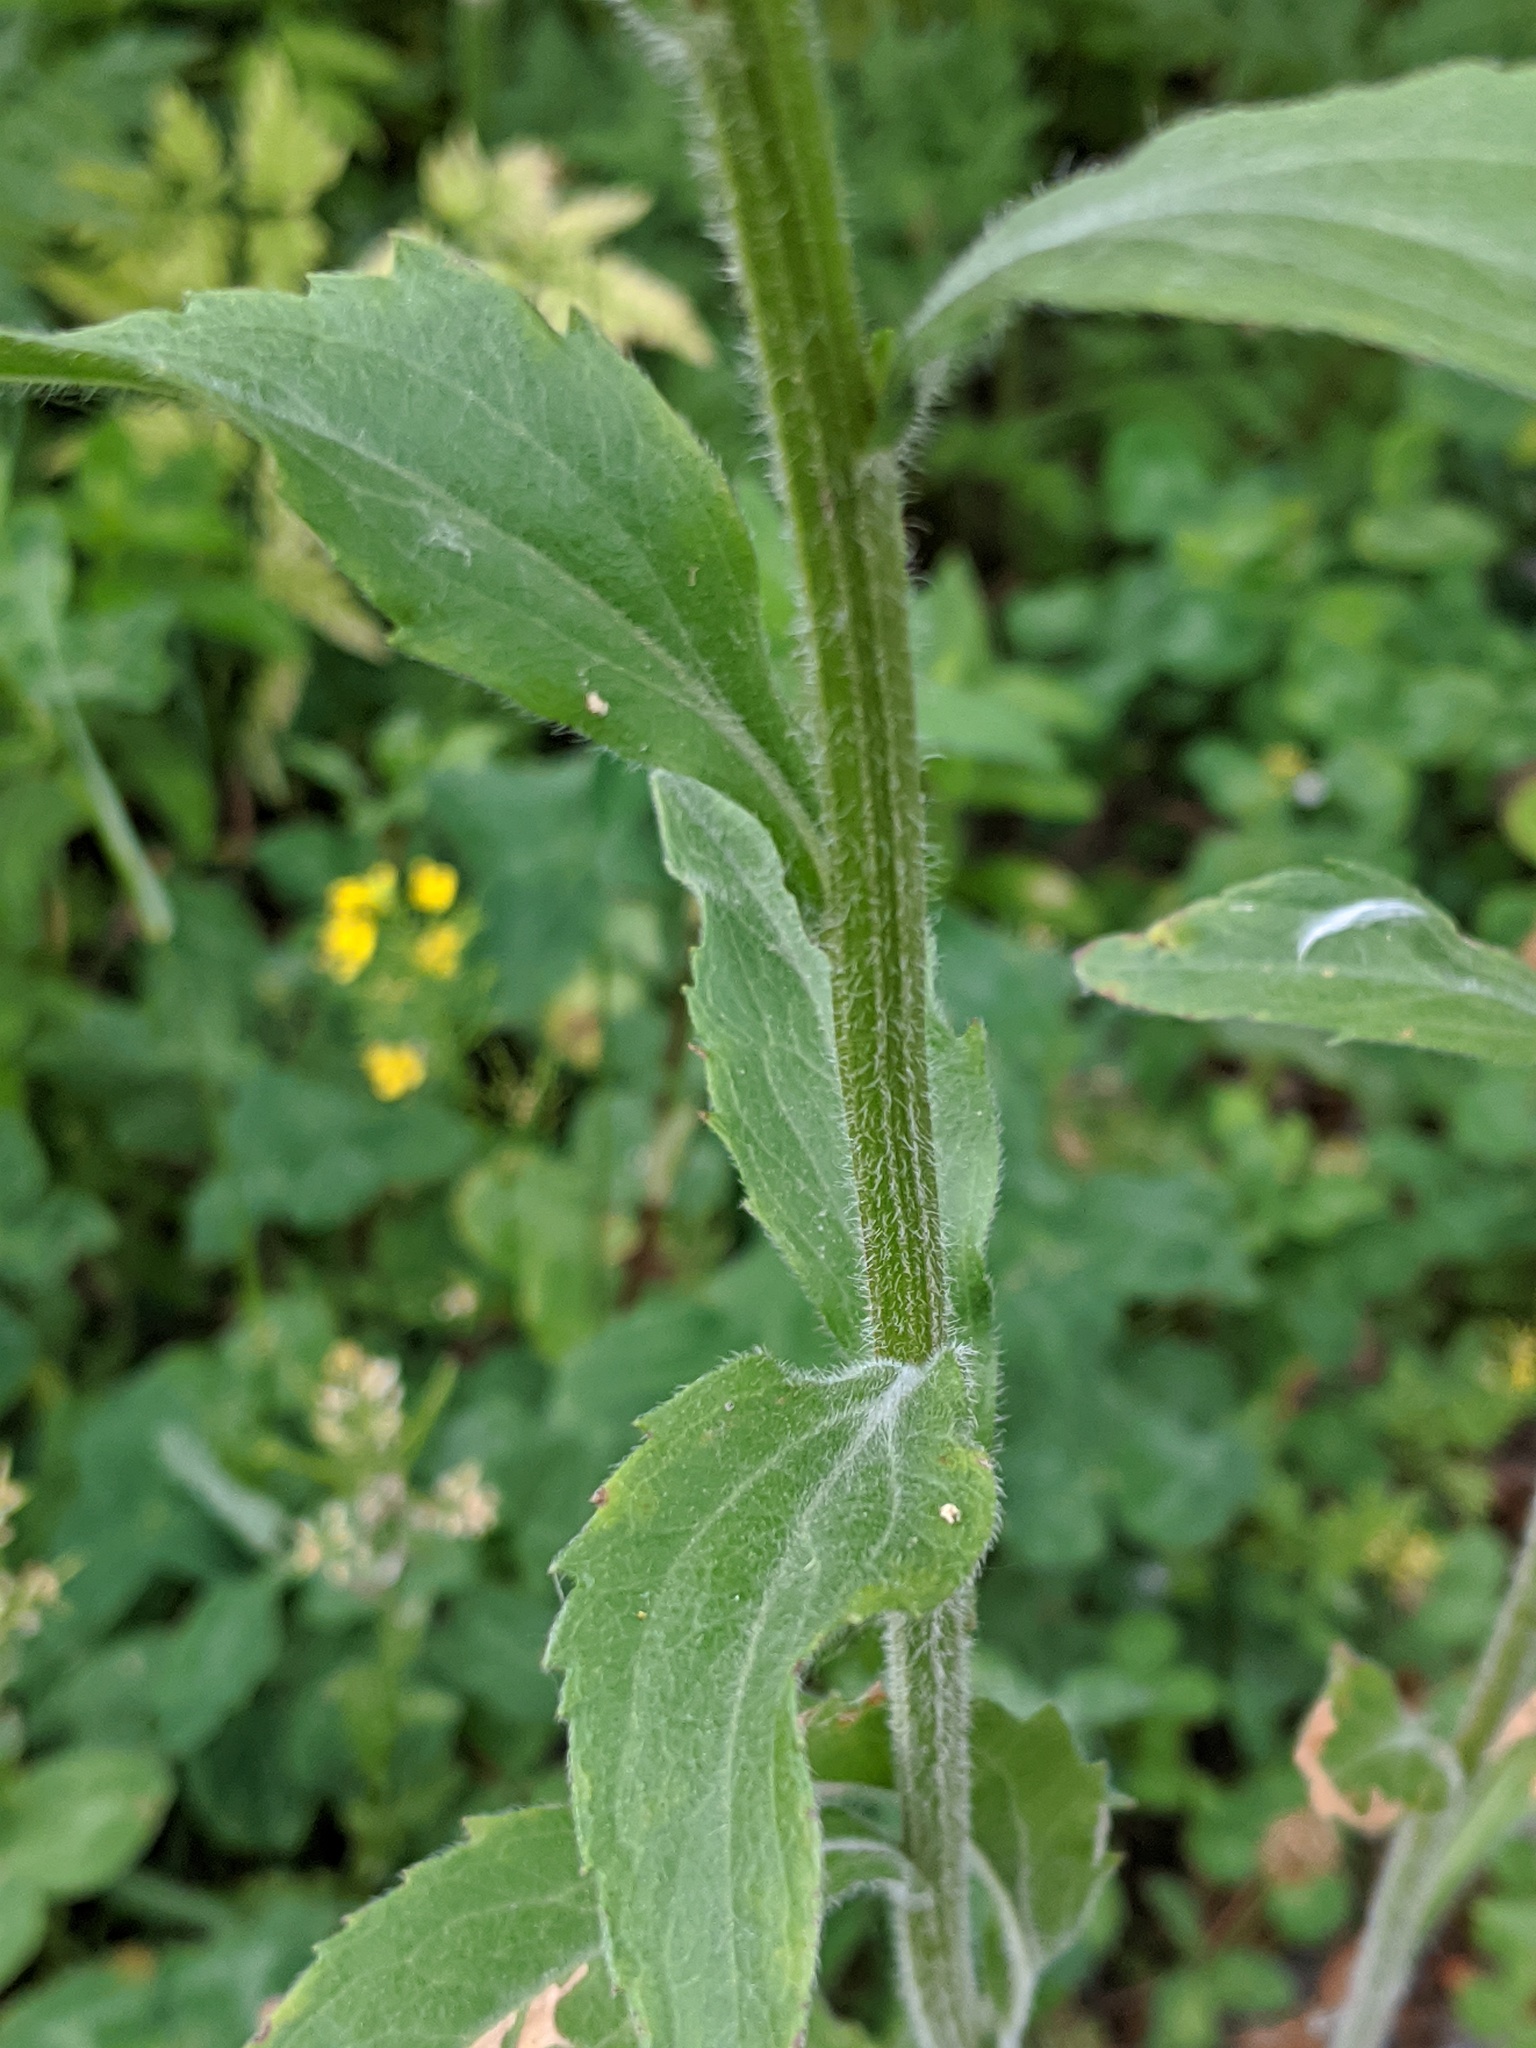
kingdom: Plantae
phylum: Tracheophyta
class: Magnoliopsida
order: Asterales
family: Asteraceae
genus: Erigeron
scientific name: Erigeron annuus
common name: Tall fleabane
